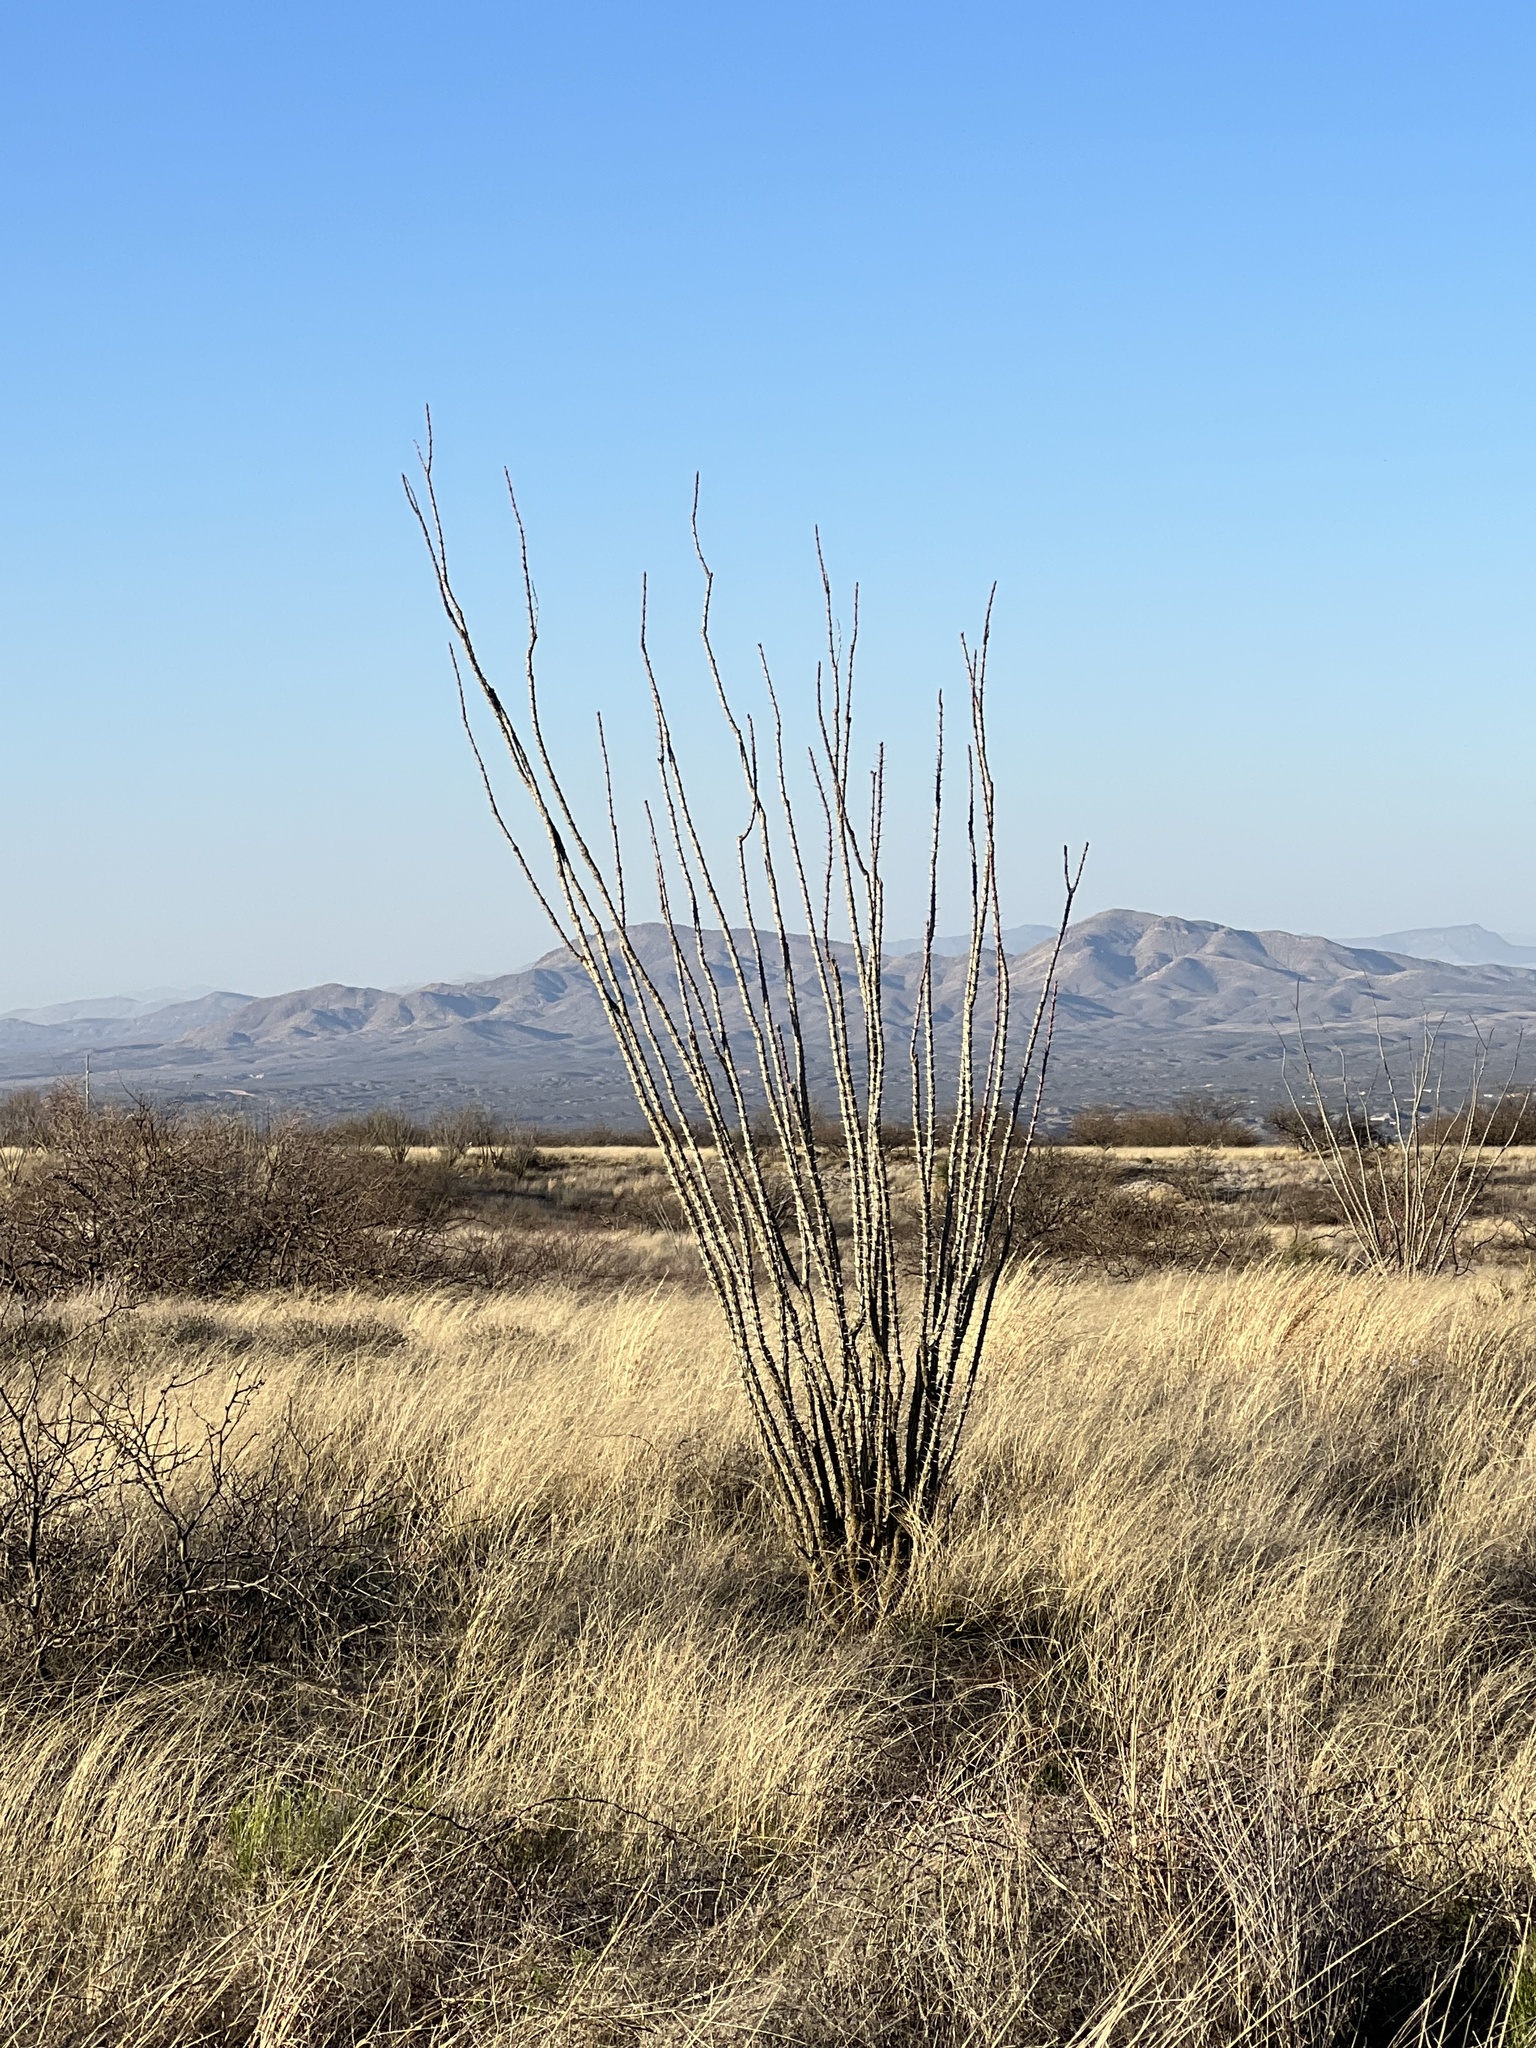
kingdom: Plantae
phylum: Tracheophyta
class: Magnoliopsida
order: Ericales
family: Fouquieriaceae
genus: Fouquieria
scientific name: Fouquieria splendens
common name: Vine-cactus
